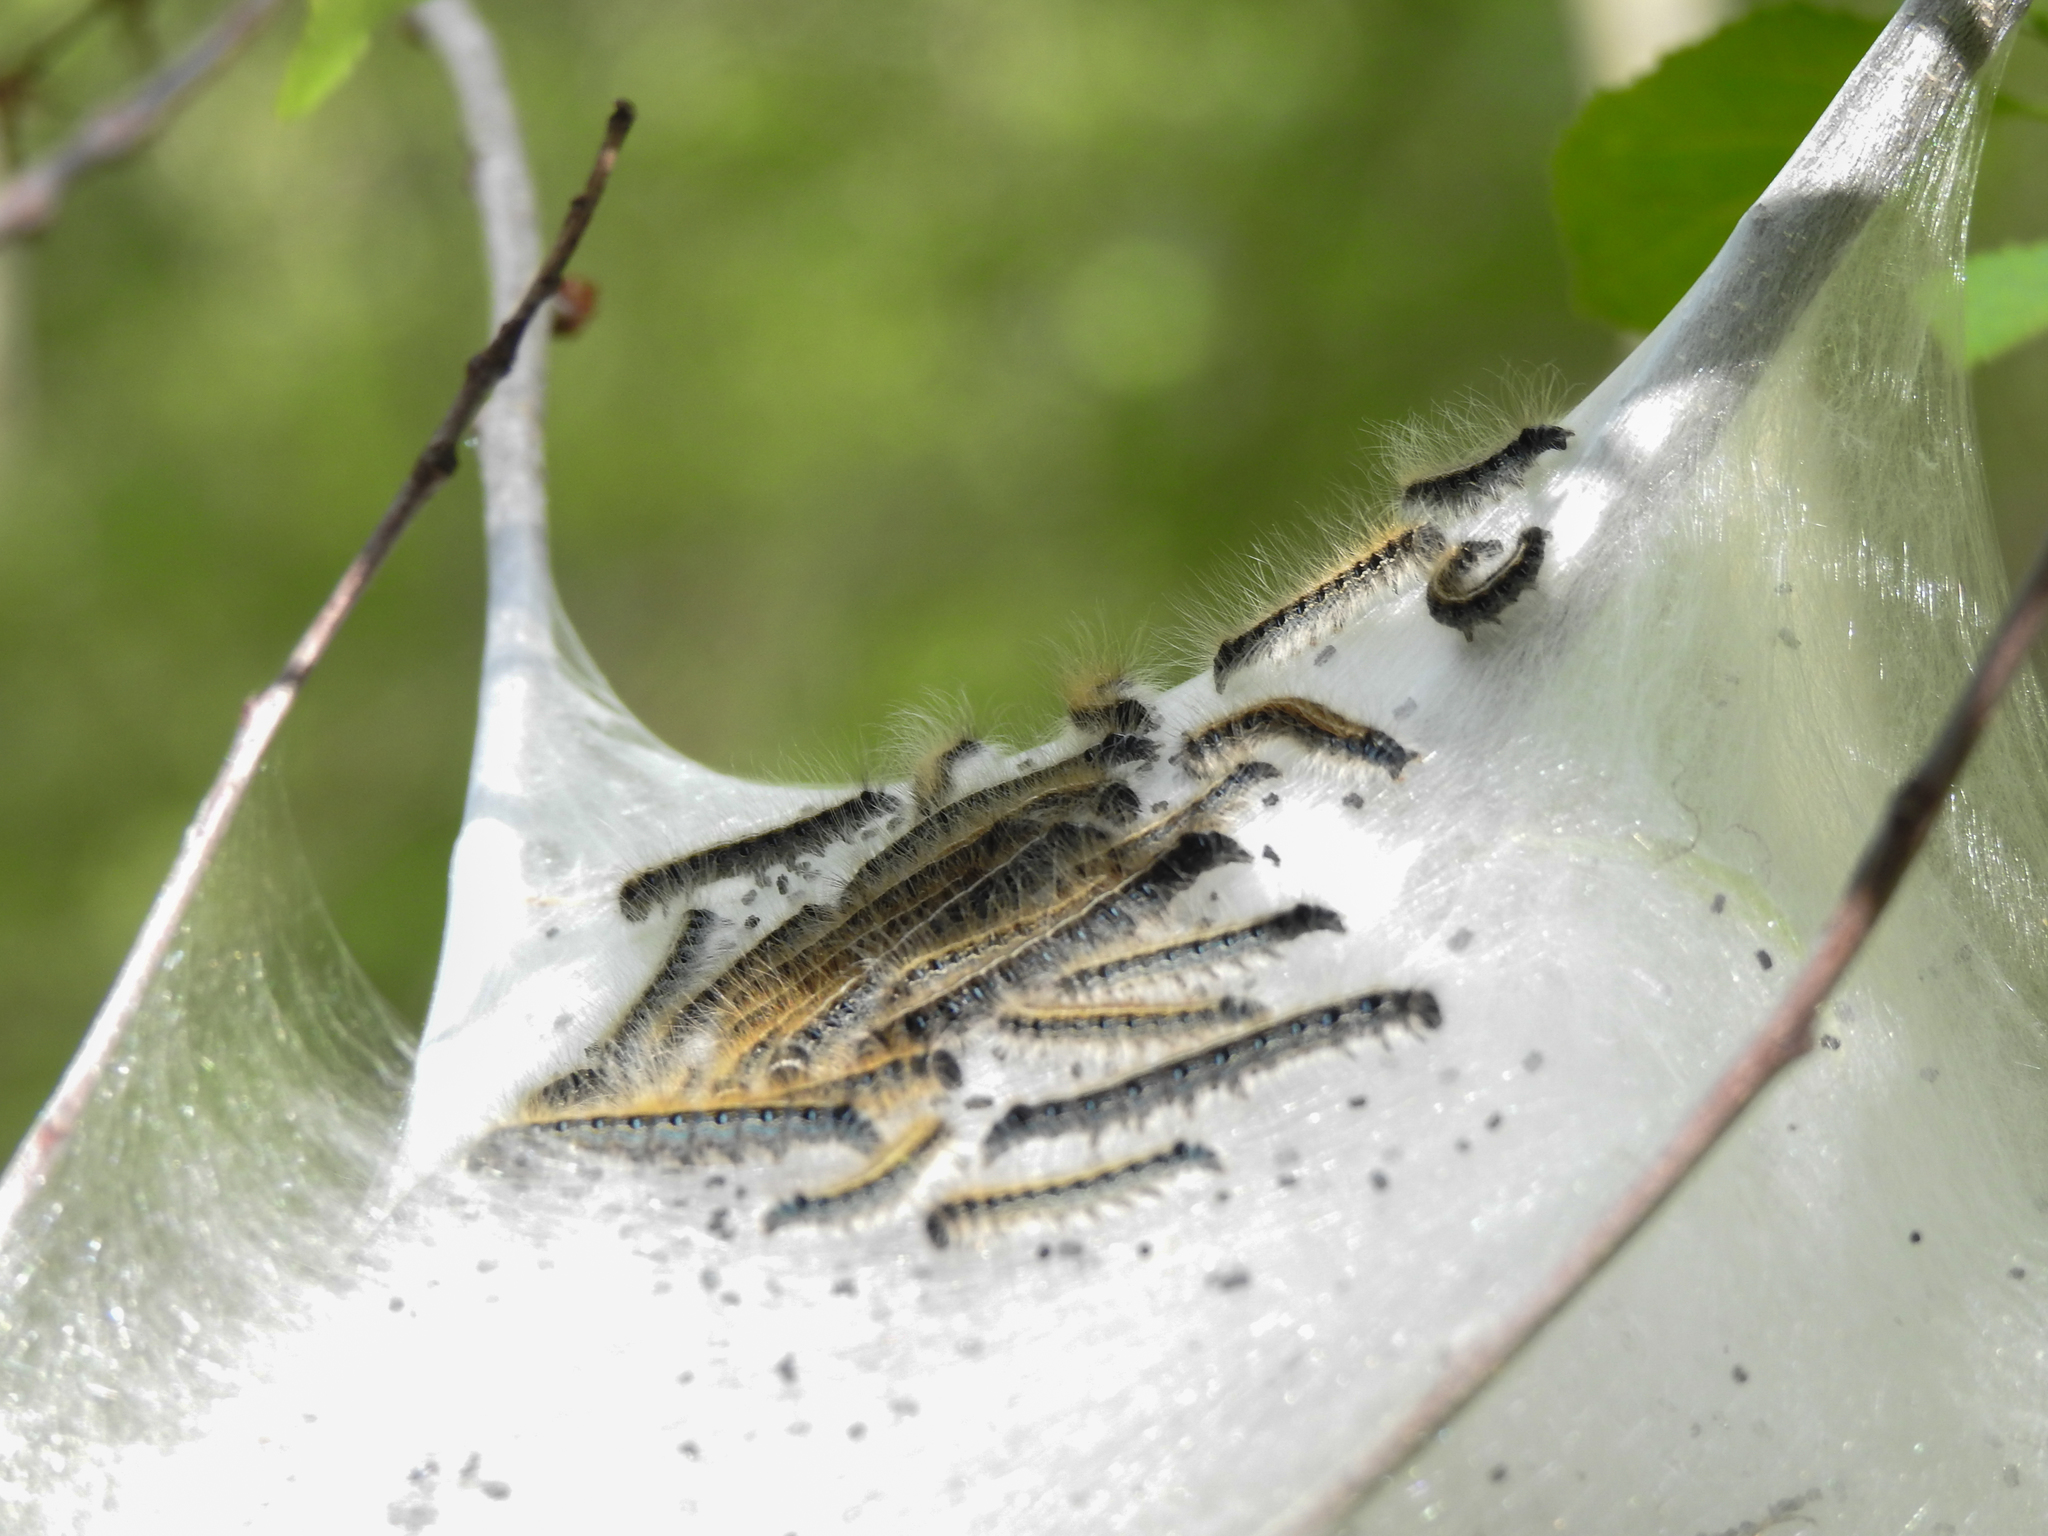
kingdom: Animalia
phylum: Arthropoda
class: Insecta
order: Lepidoptera
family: Lasiocampidae
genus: Malacosoma
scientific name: Malacosoma americana
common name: Eastern tent caterpillar moth
